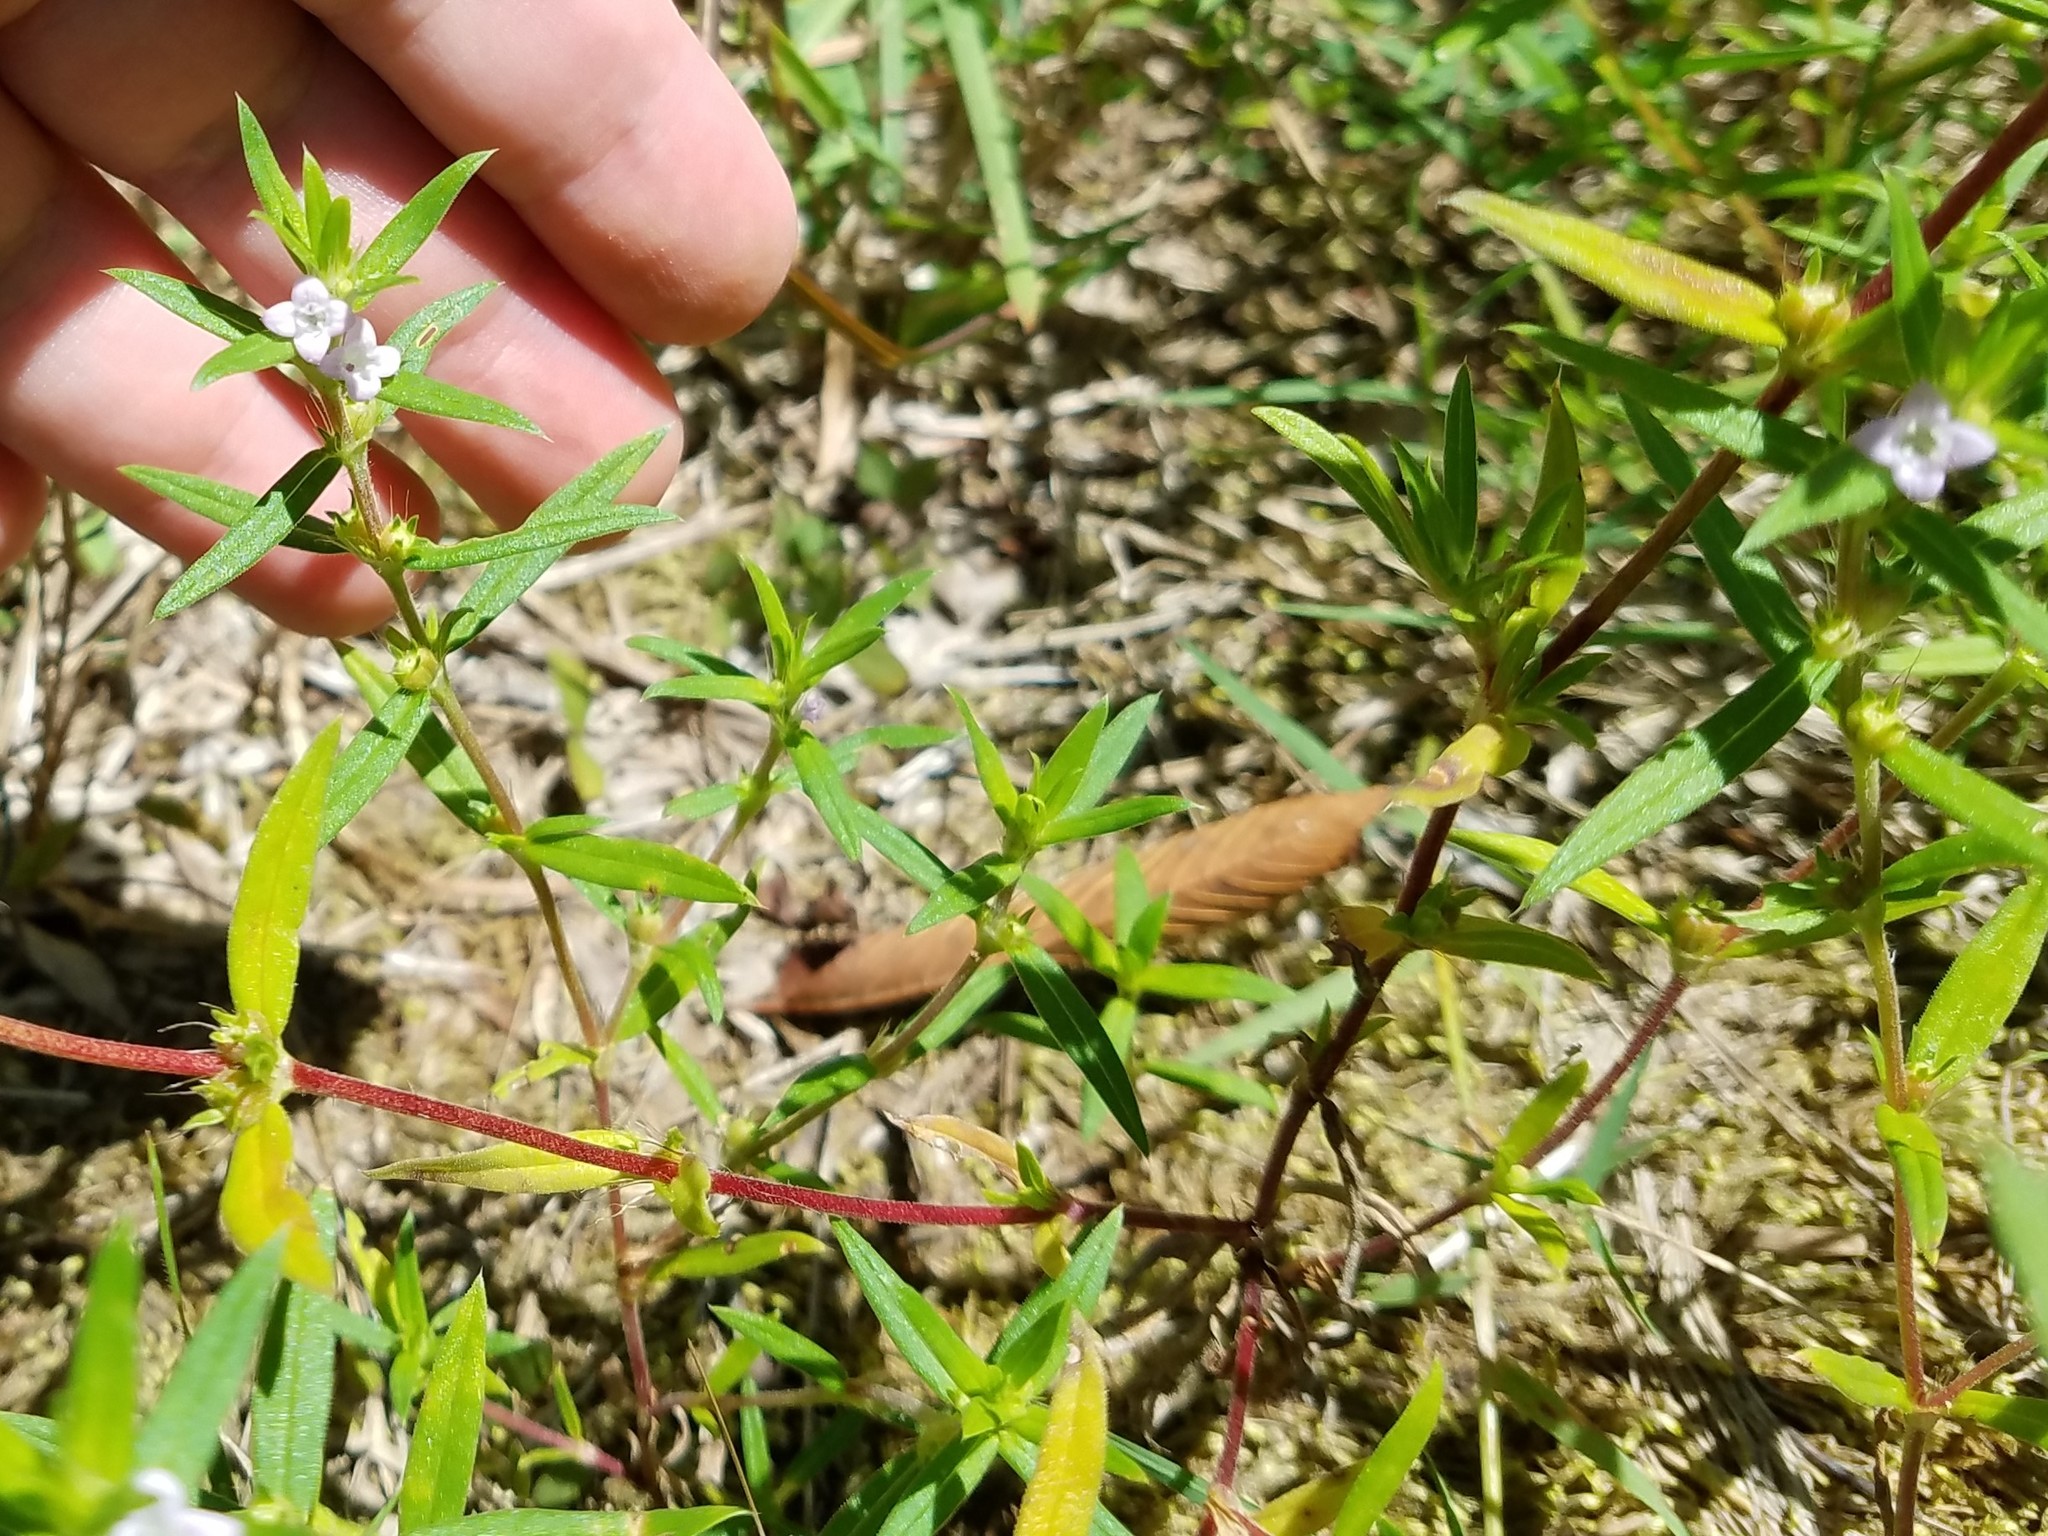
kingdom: Plantae
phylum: Tracheophyta
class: Magnoliopsida
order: Gentianales
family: Rubiaceae
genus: Hexasepalum
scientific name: Hexasepalum teres
